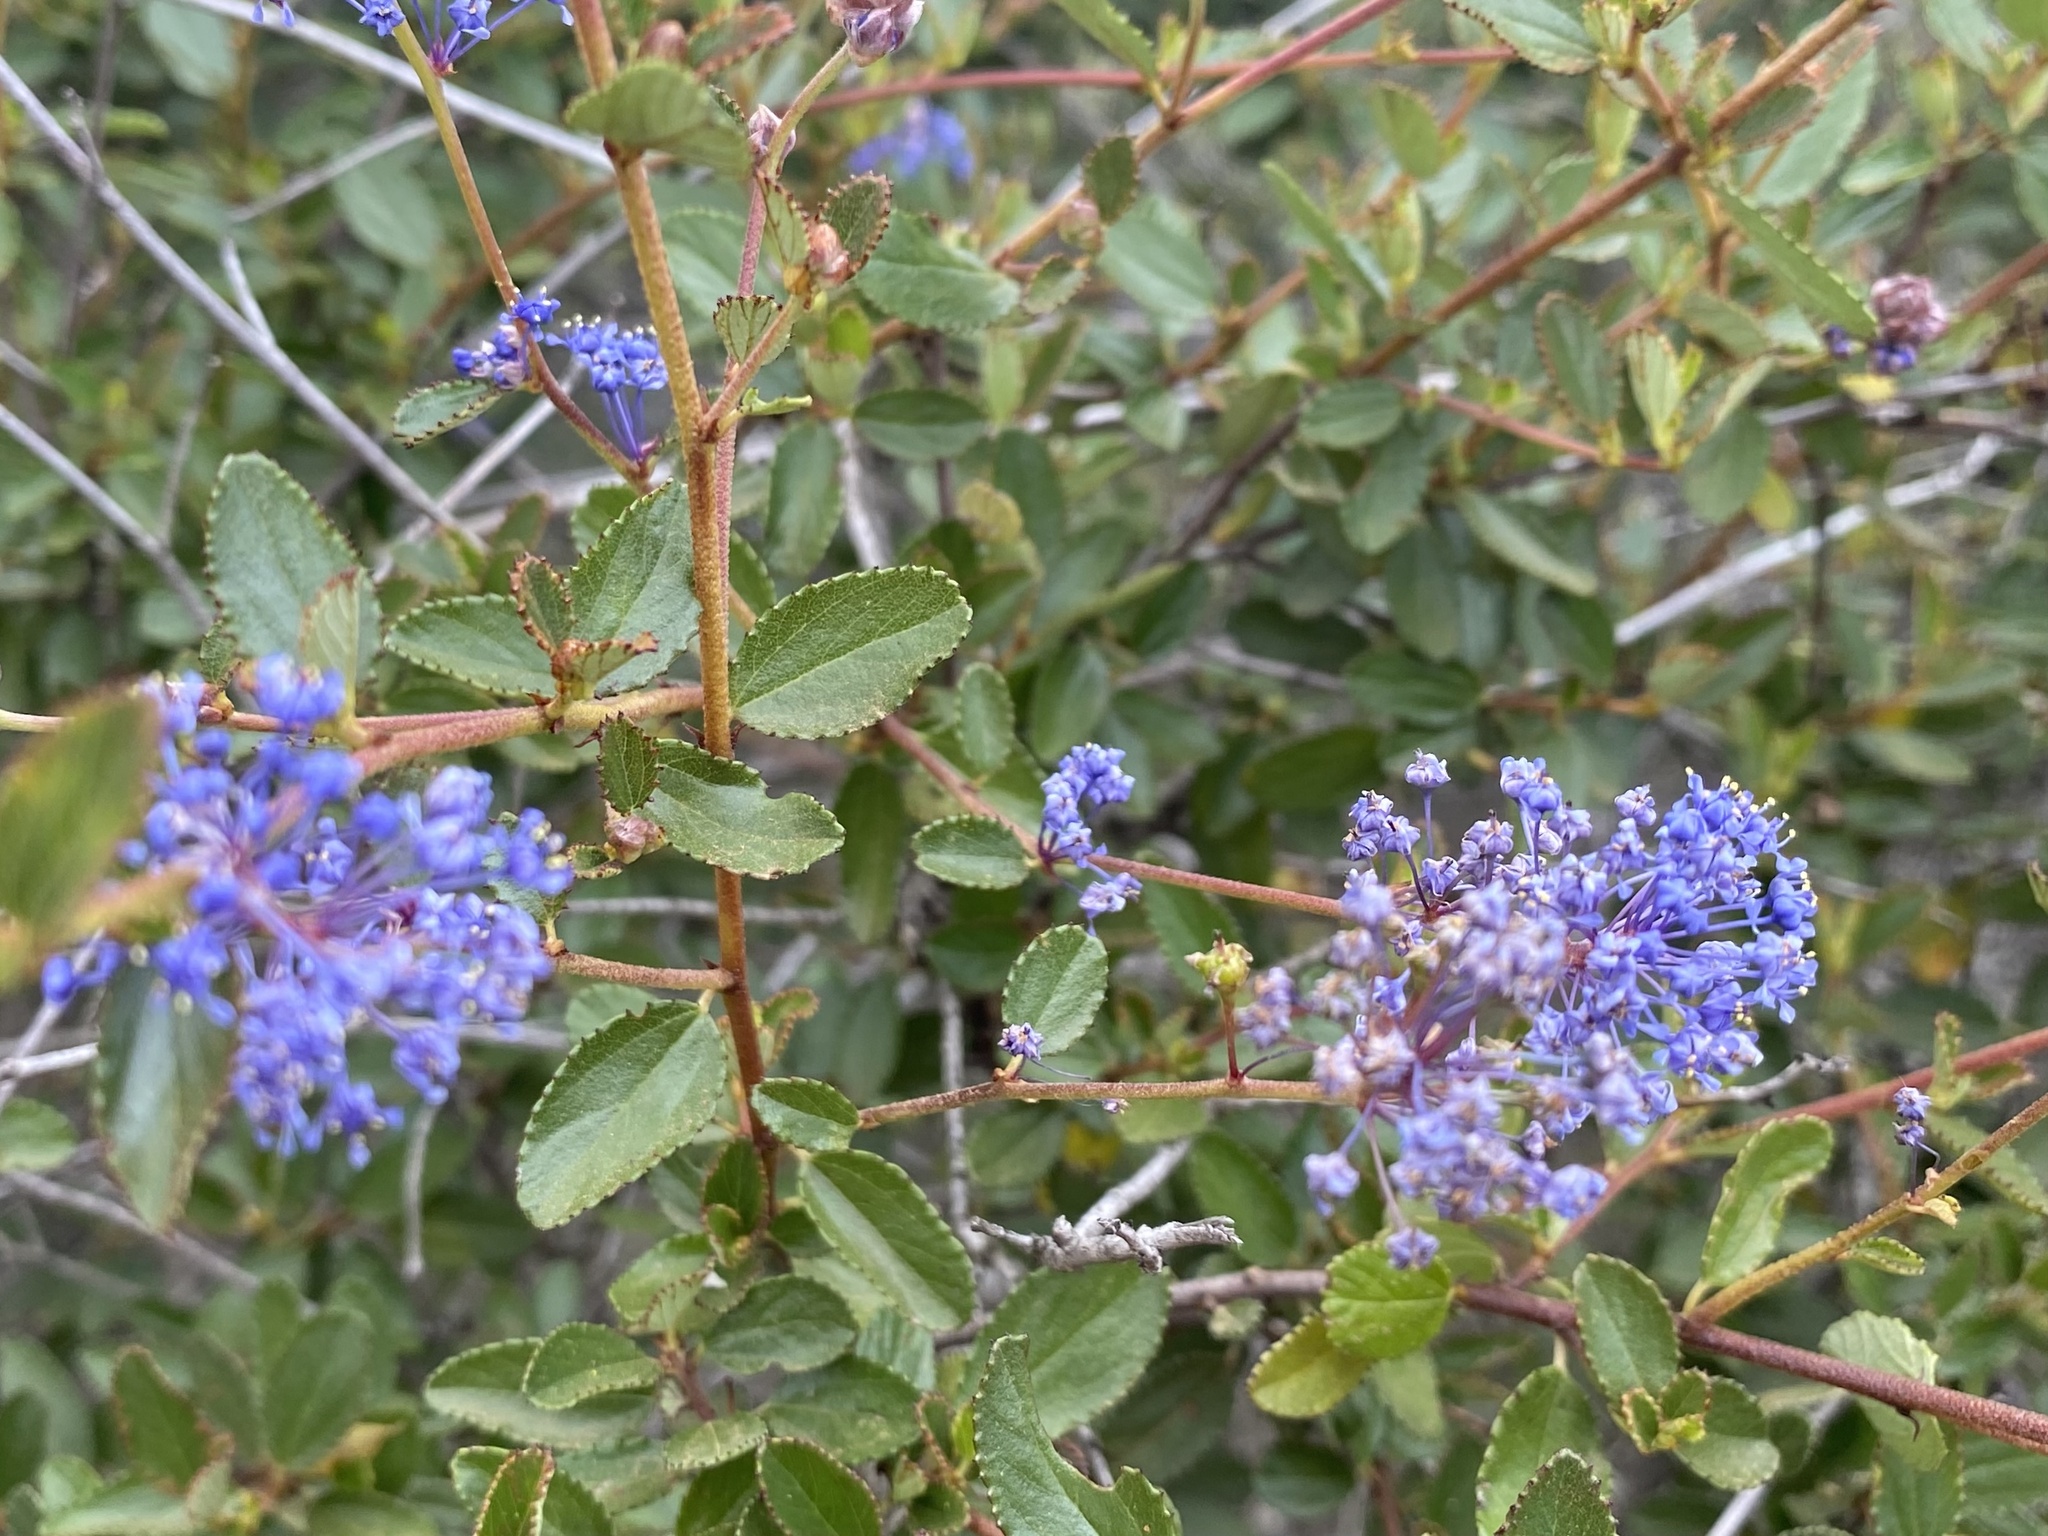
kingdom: Plantae
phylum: Tracheophyta
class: Magnoliopsida
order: Rosales
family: Rhamnaceae
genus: Ceanothus
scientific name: Ceanothus tomentosus
